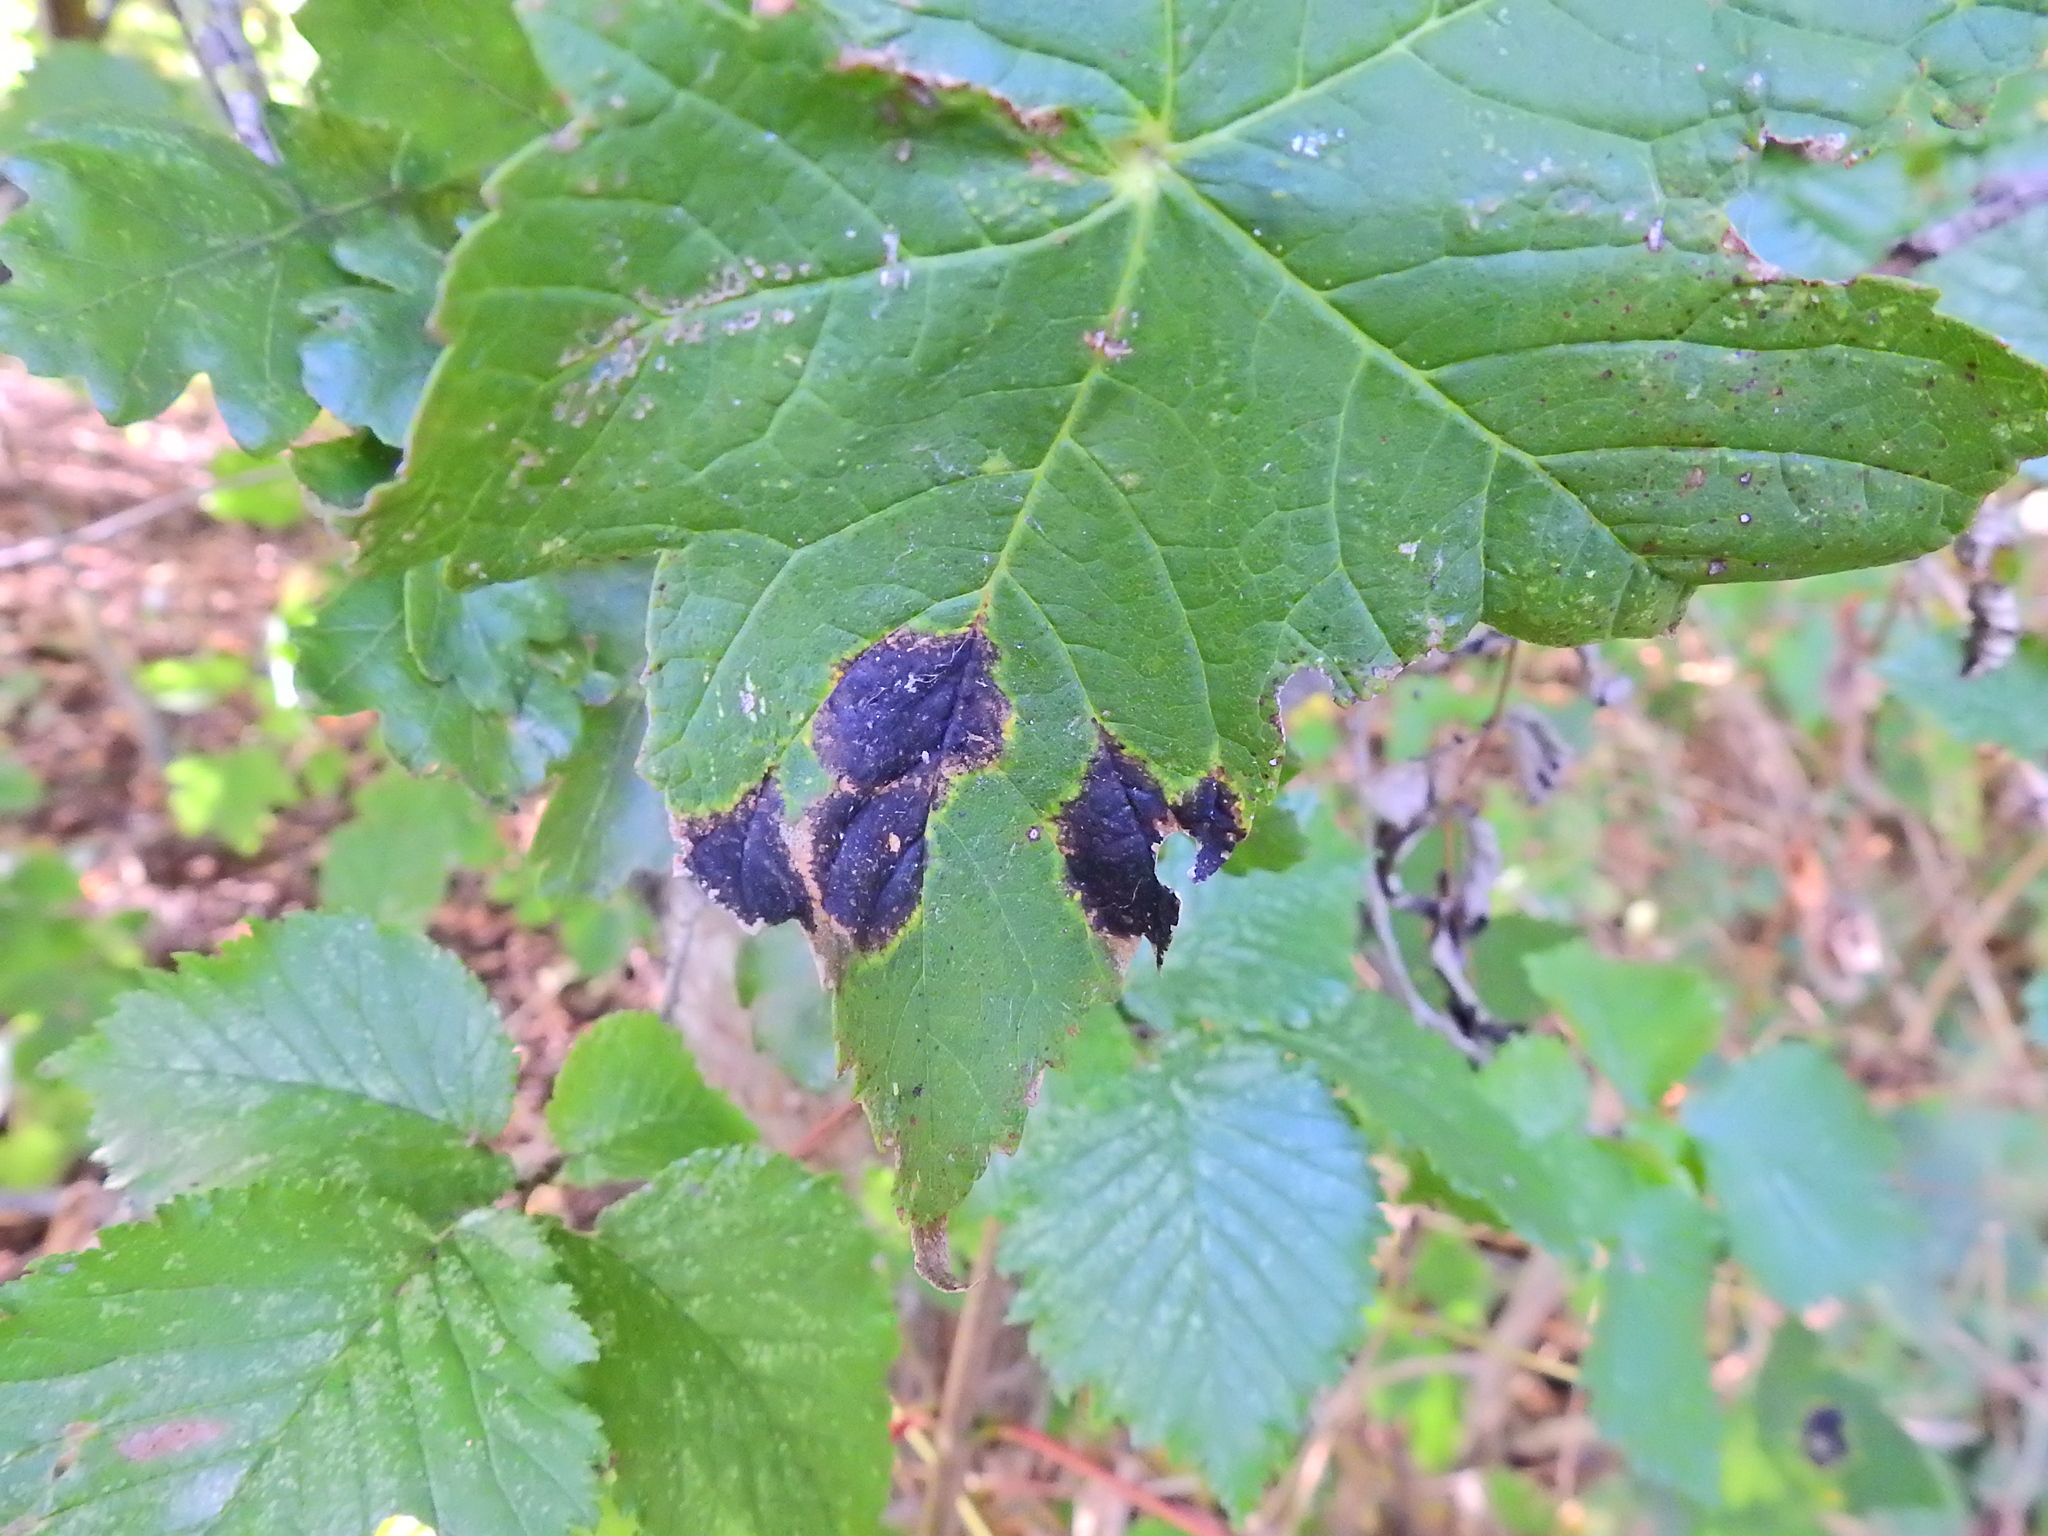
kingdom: Fungi
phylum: Ascomycota
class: Leotiomycetes
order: Rhytismatales
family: Rhytismataceae
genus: Rhytisma
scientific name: Rhytisma acerinum
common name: European tar spot
